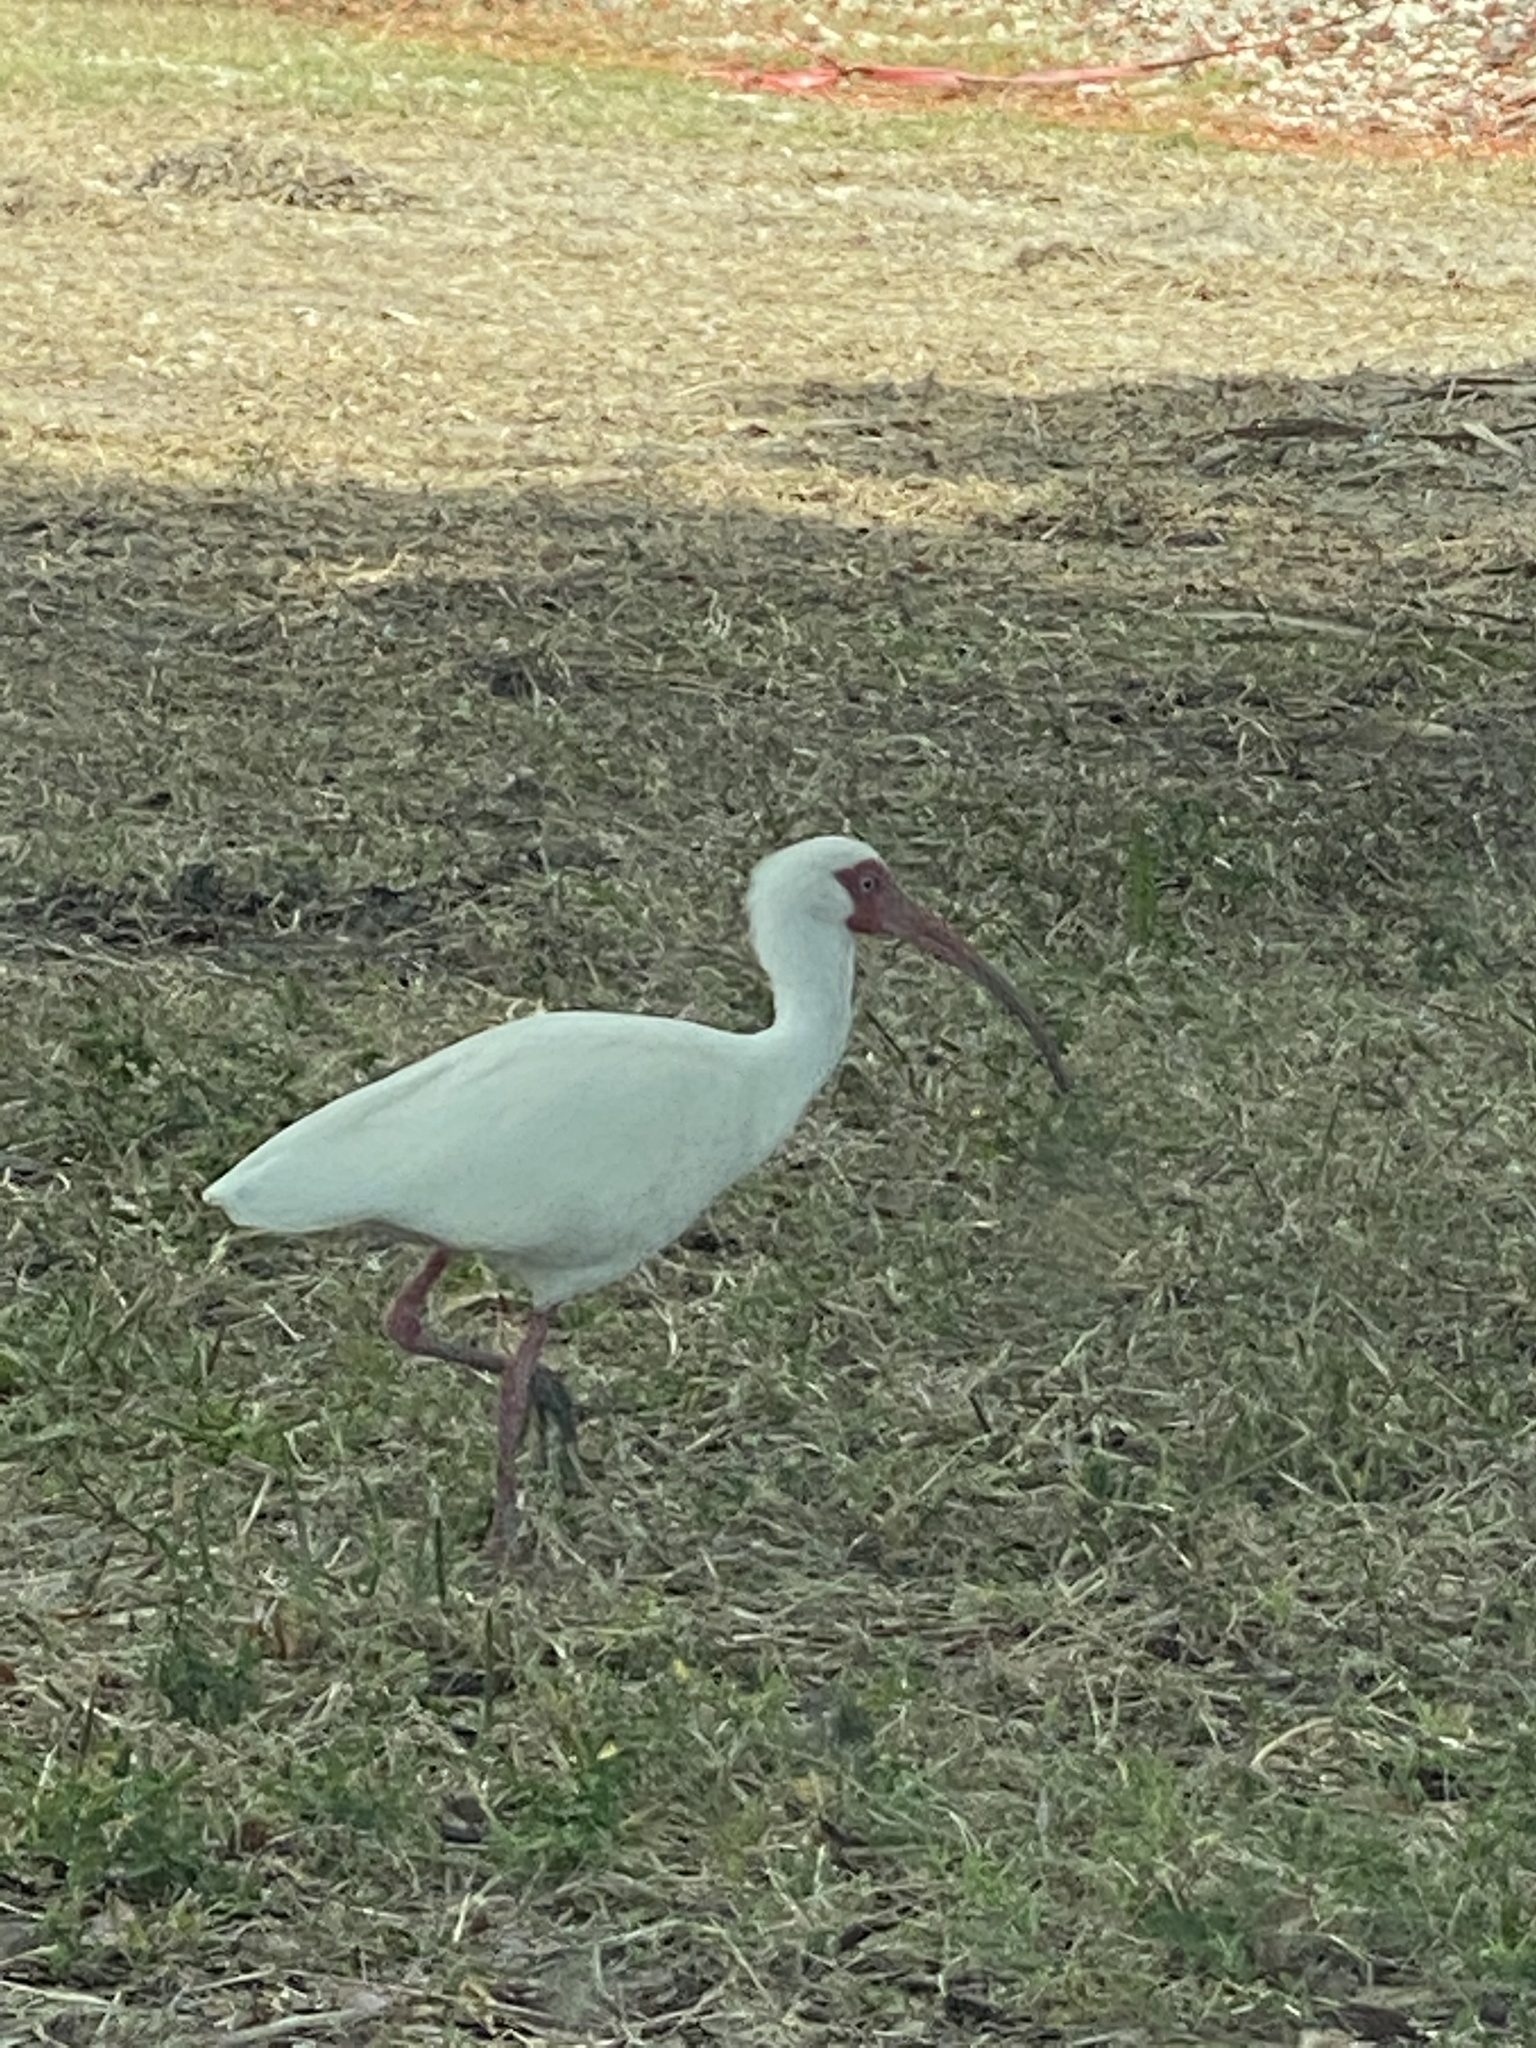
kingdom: Animalia
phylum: Chordata
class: Aves
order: Pelecaniformes
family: Threskiornithidae
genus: Eudocimus
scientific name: Eudocimus albus
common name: White ibis
